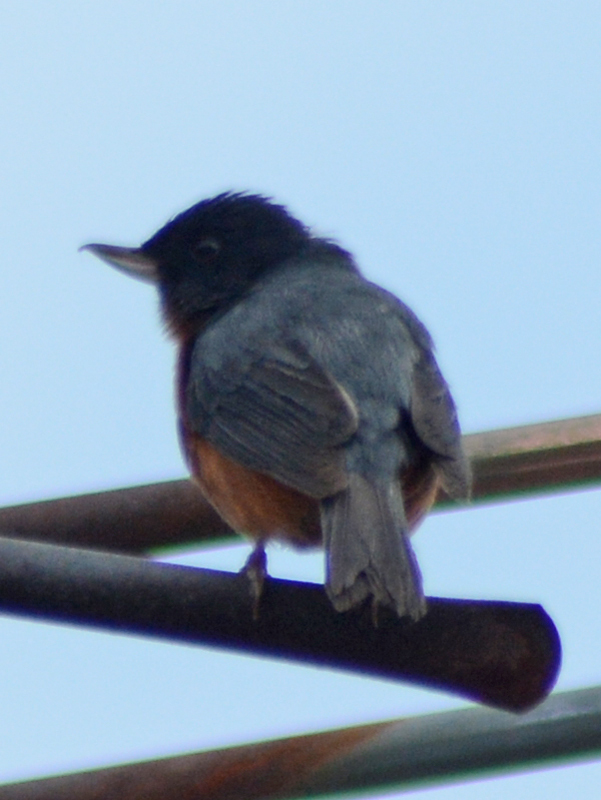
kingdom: Animalia
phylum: Chordata
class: Aves
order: Passeriformes
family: Thraupidae
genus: Diglossa
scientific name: Diglossa baritula
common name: Cinnamon-bellied flowerpiercer
